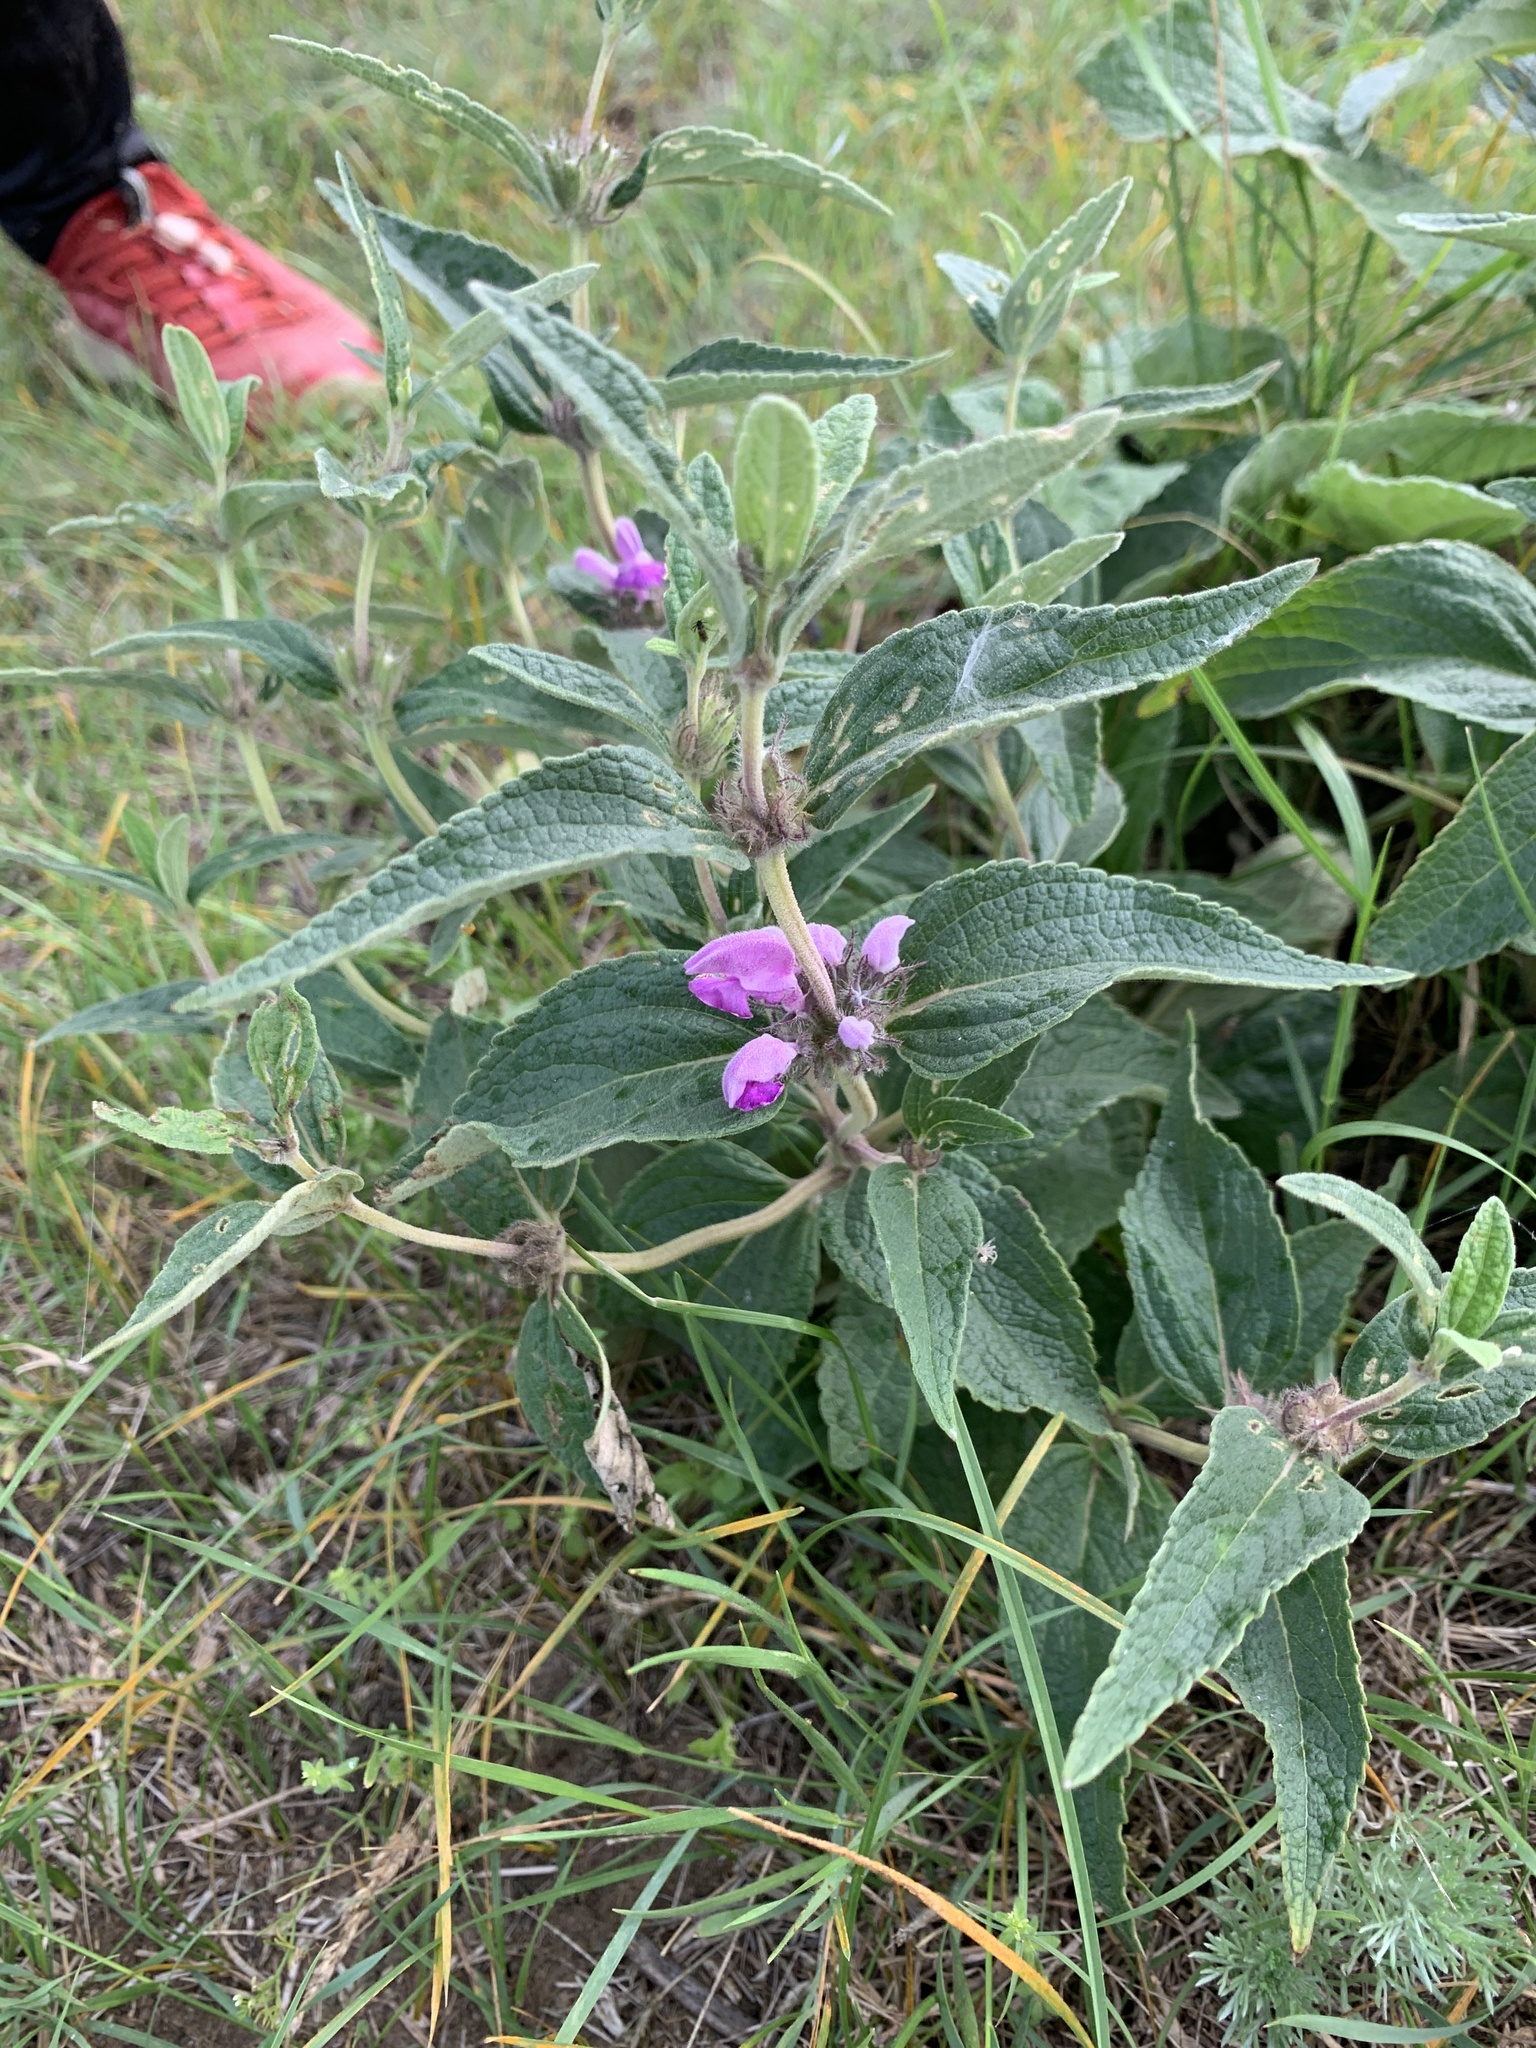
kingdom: Plantae
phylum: Tracheophyta
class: Magnoliopsida
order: Lamiales
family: Lamiaceae
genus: Phlomis
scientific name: Phlomis herba-venti
